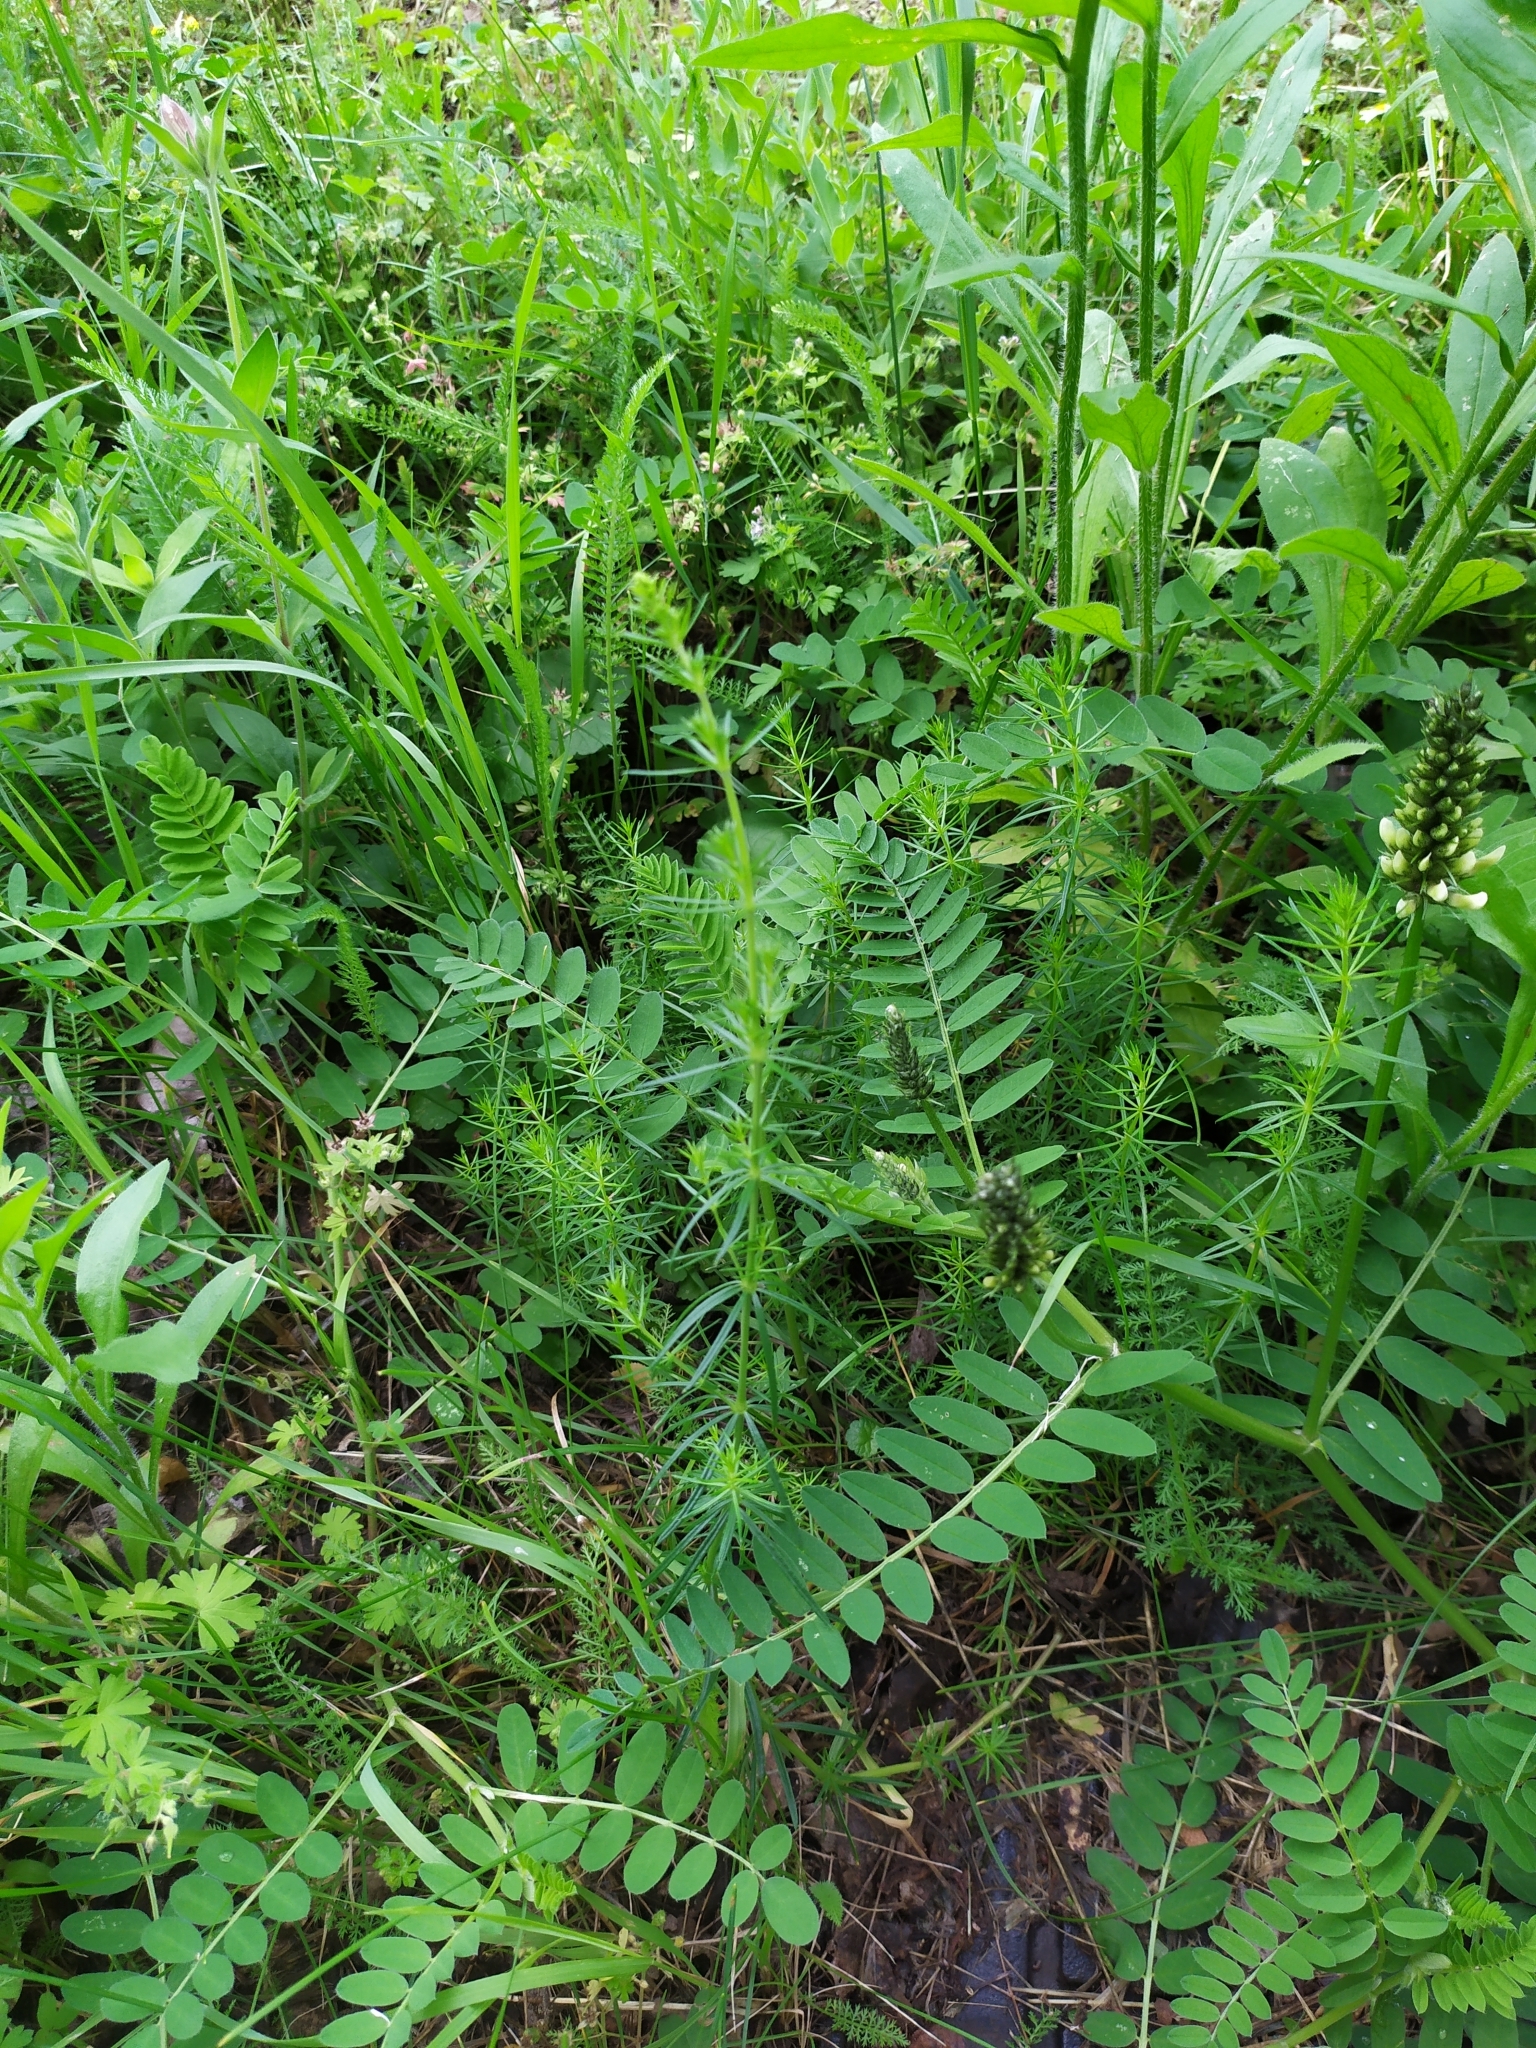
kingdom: Plantae
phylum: Tracheophyta
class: Magnoliopsida
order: Gentianales
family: Rubiaceae
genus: Galium
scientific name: Galium verum
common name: Lady's bedstraw
